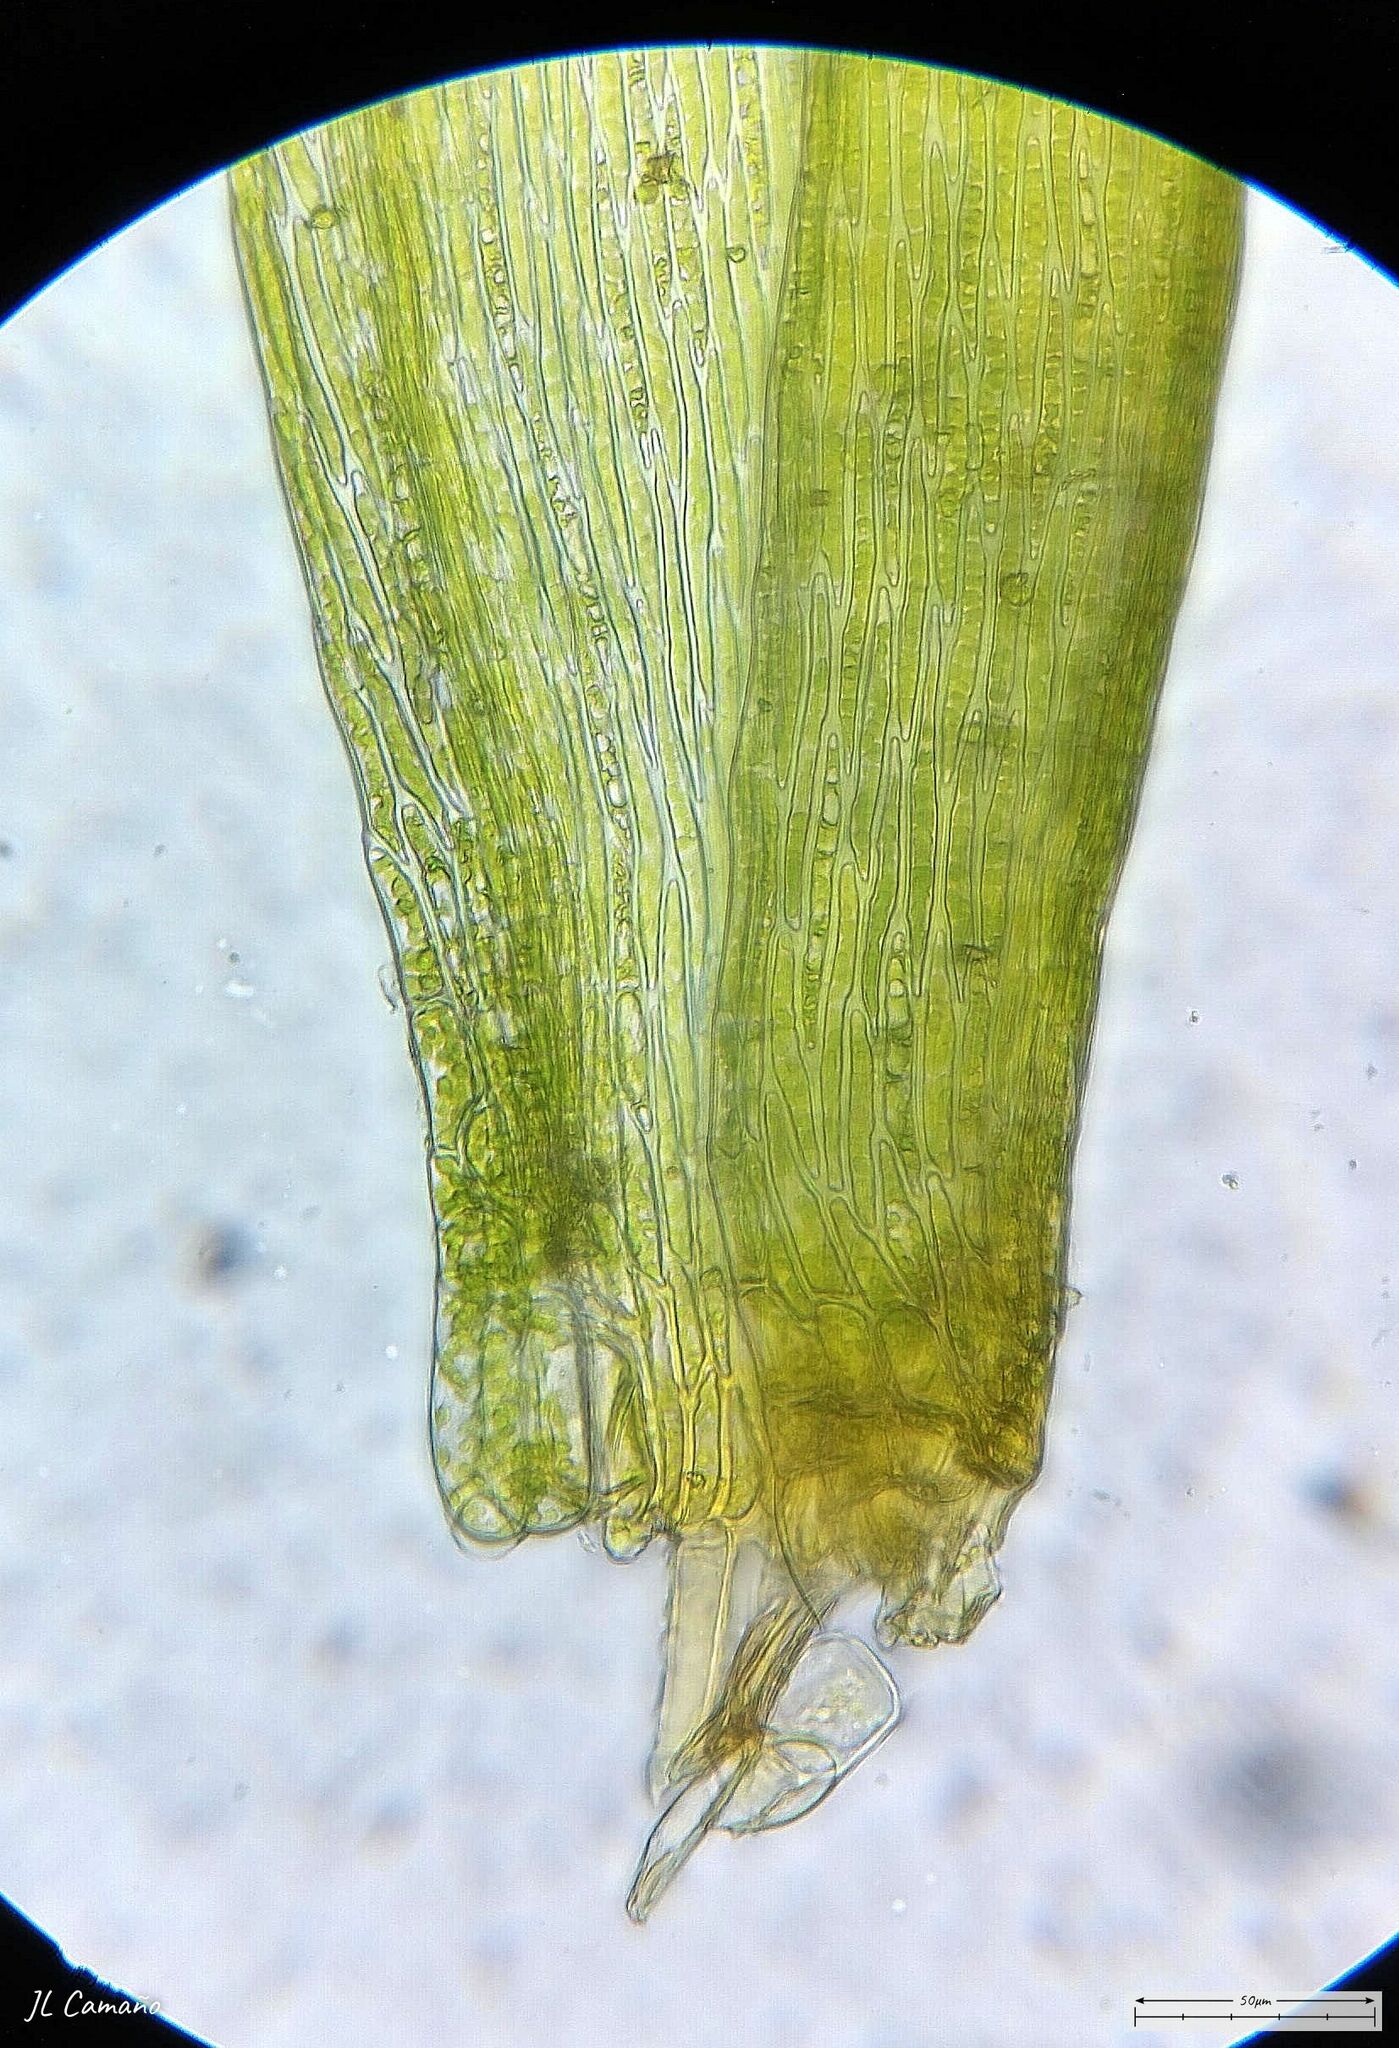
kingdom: Plantae
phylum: Bryophyta
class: Bryopsida
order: Hypnales
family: Sematophyllaceae
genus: Sematophyllum
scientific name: Sematophyllum substrumulosum
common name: Bark signal-moss
